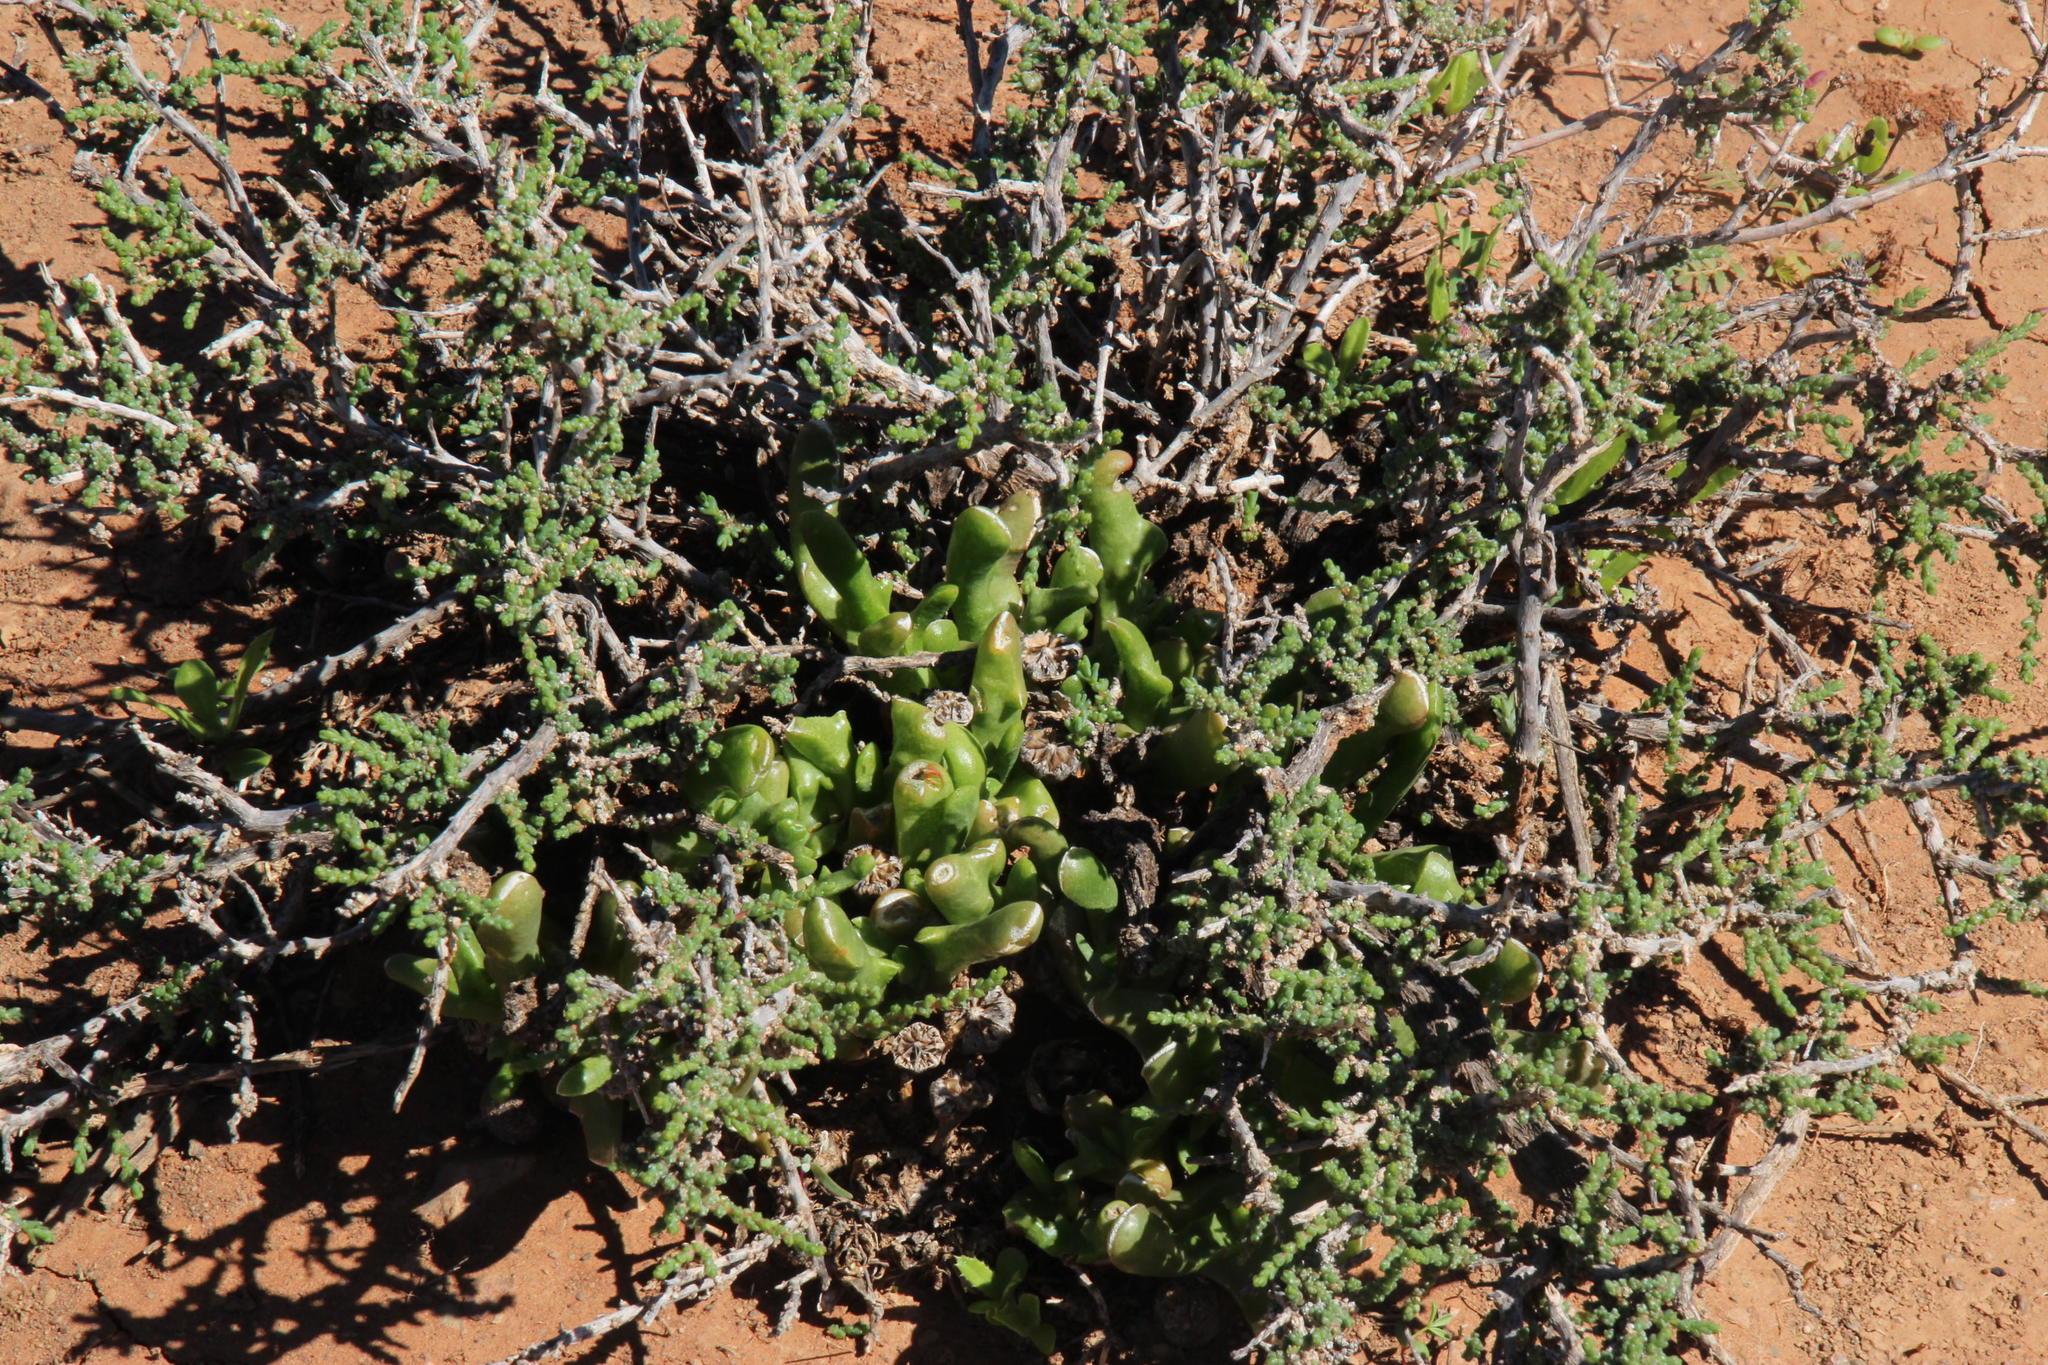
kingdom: Plantae
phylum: Tracheophyta
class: Magnoliopsida
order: Caryophyllales
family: Aizoaceae
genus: Glottiphyllum
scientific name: Glottiphyllum difforme
